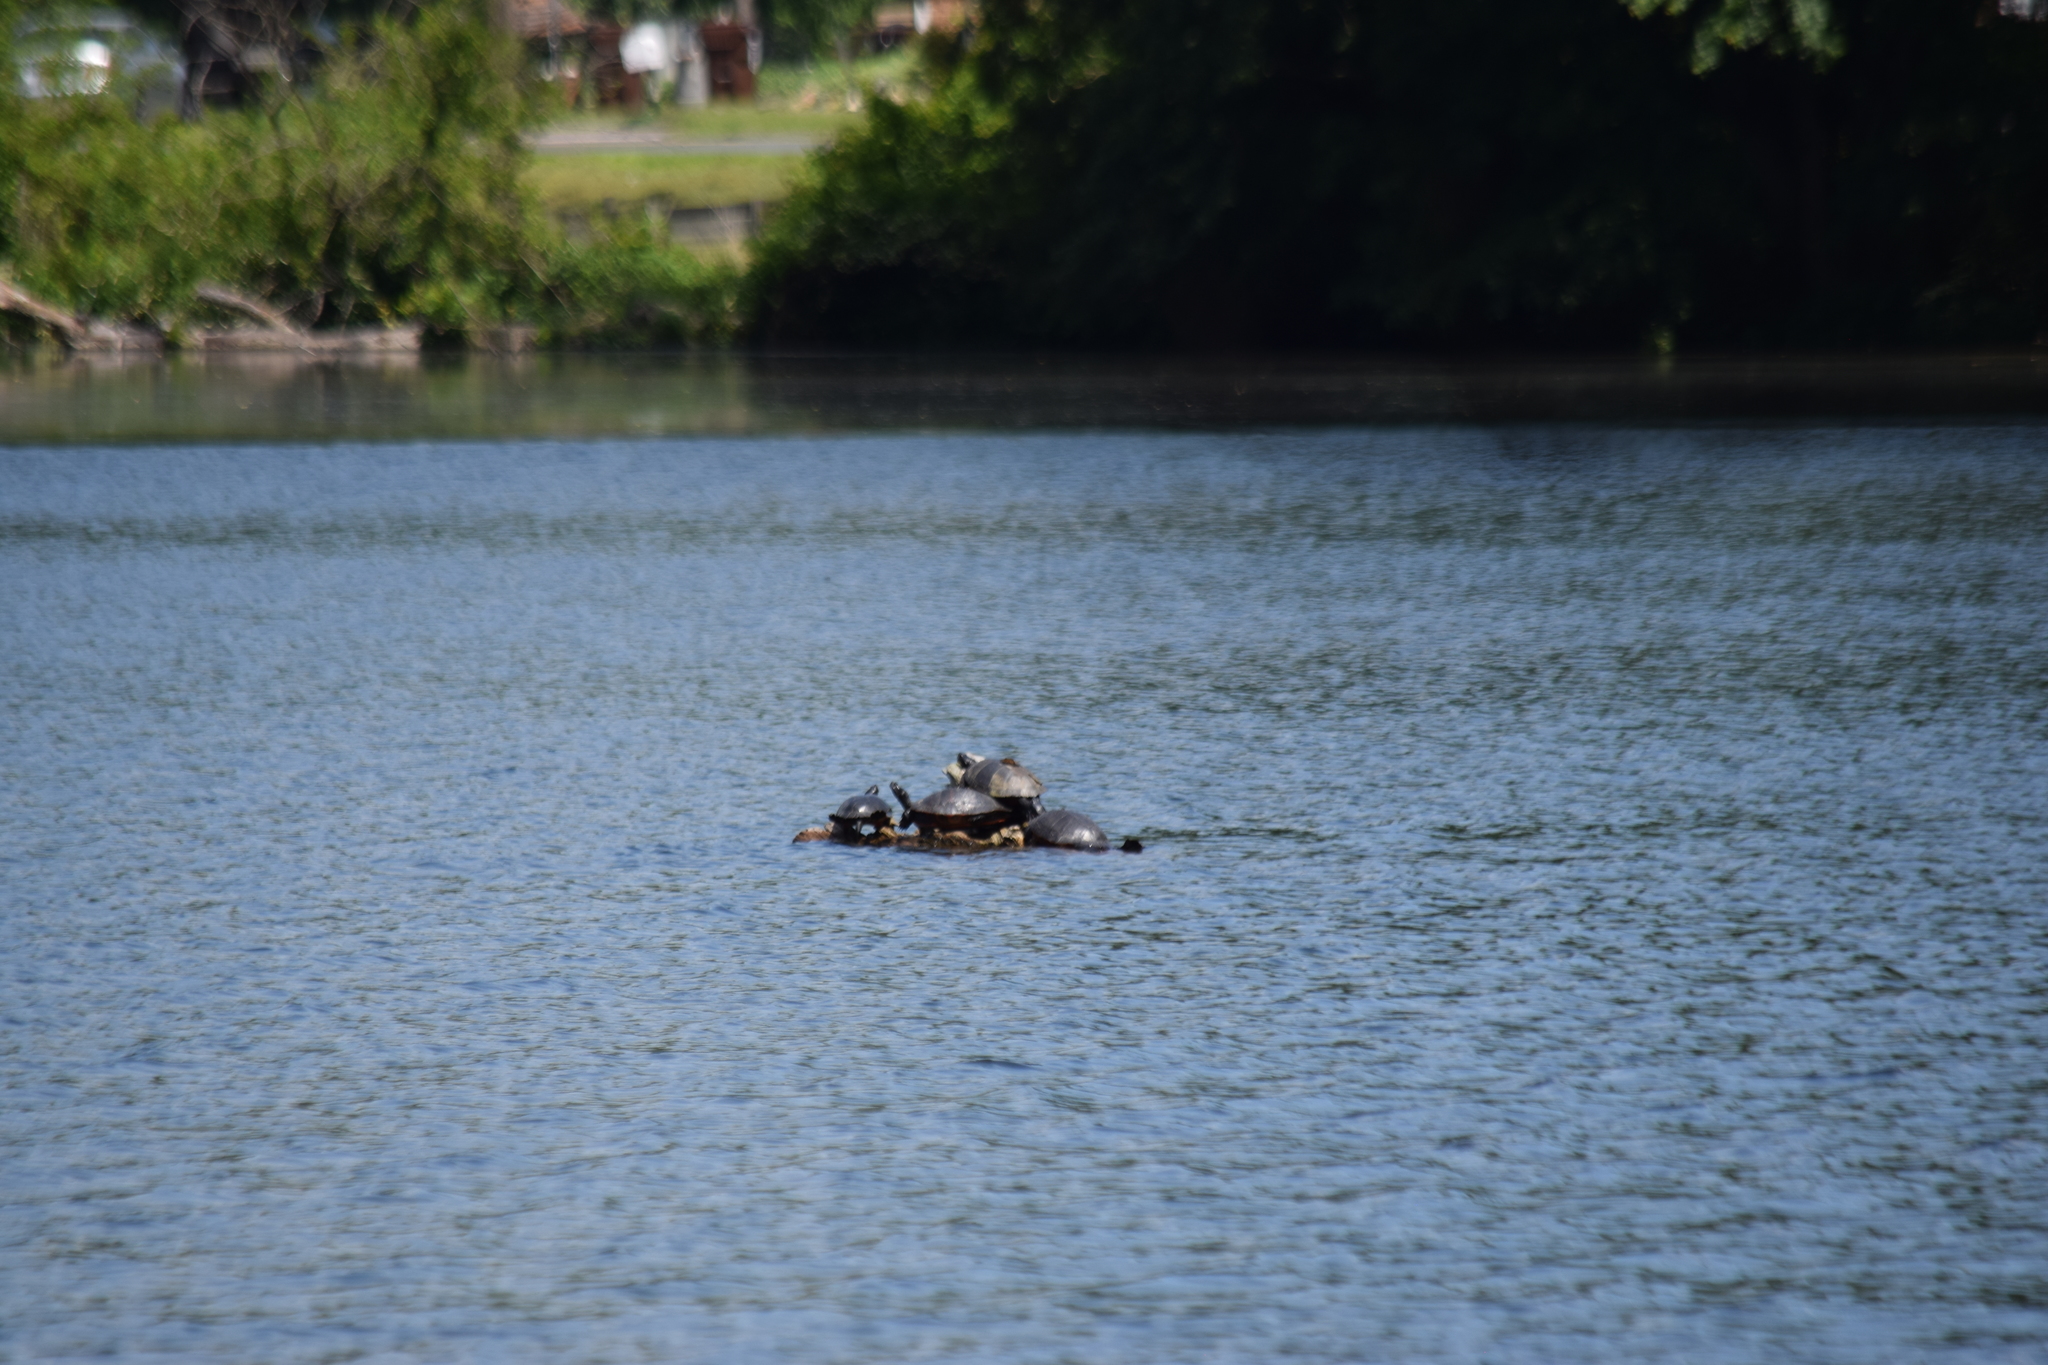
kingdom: Animalia
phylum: Chordata
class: Testudines
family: Emydidae
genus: Pseudemys
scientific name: Pseudemys rubriventris
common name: American red-bellied turtle
